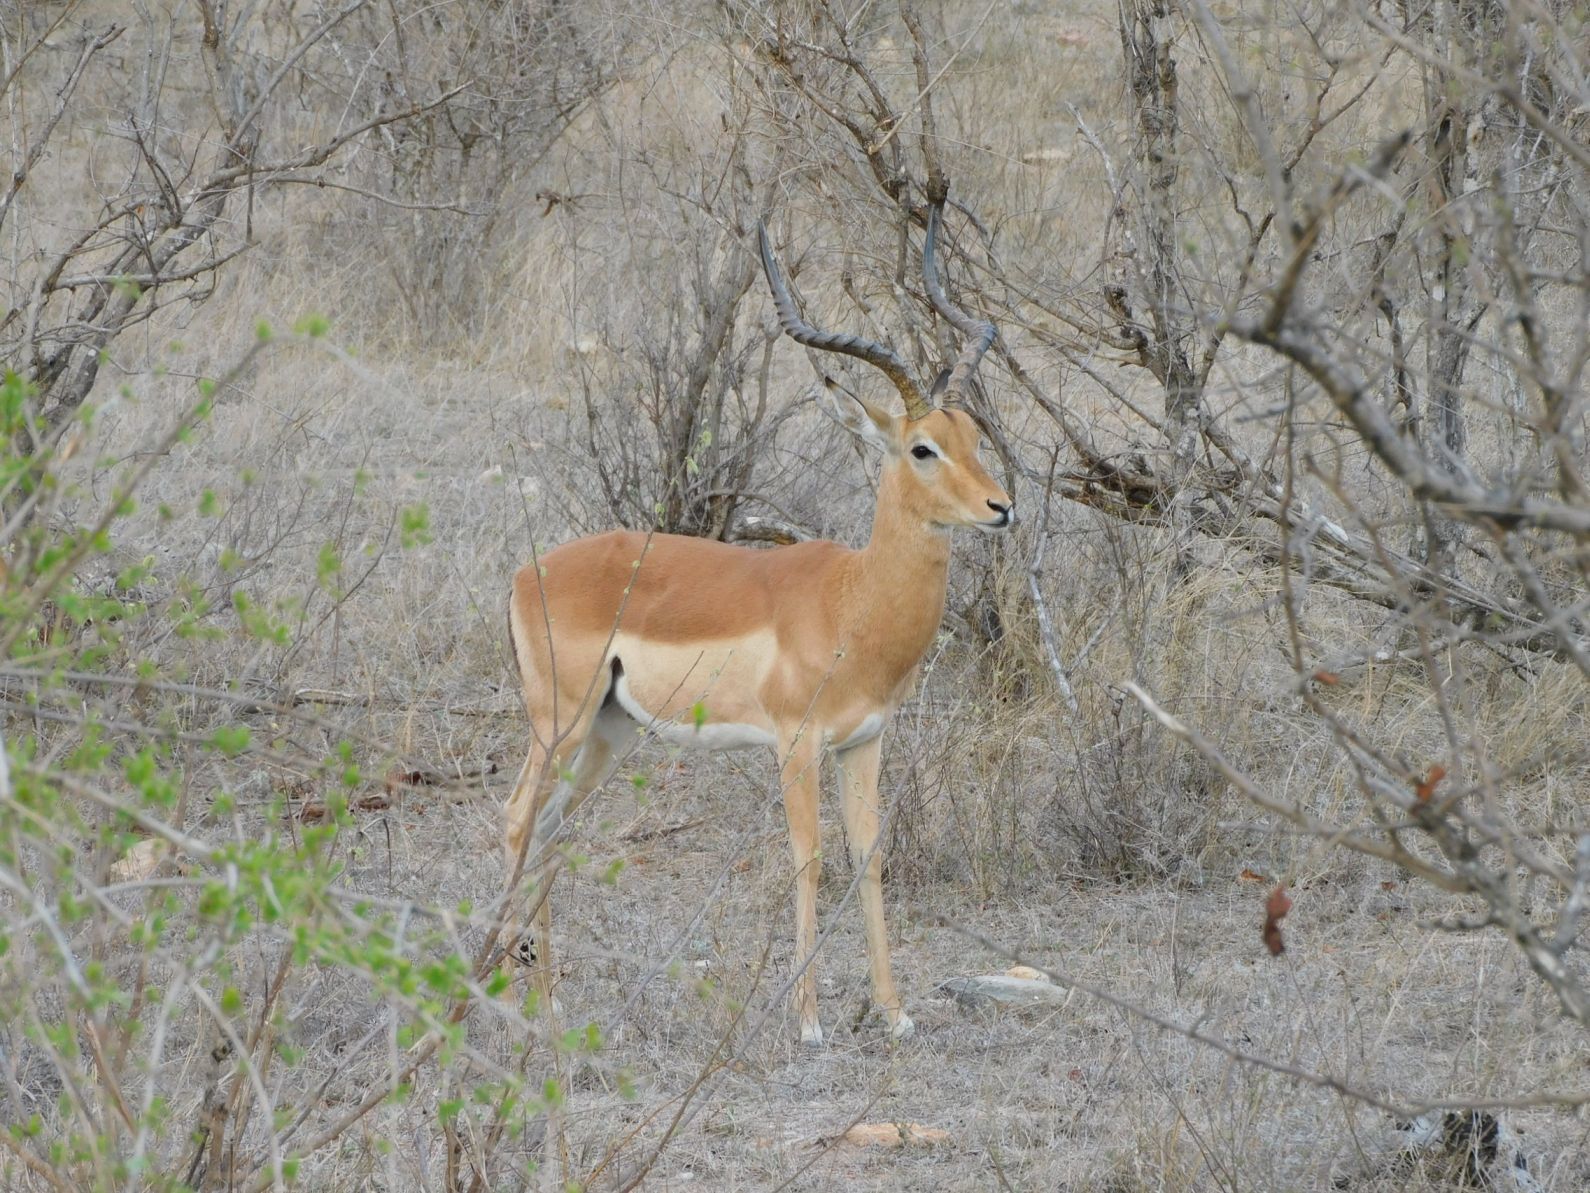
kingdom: Animalia
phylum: Chordata
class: Mammalia
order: Artiodactyla
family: Bovidae
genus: Aepyceros
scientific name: Aepyceros melampus
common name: Impala
